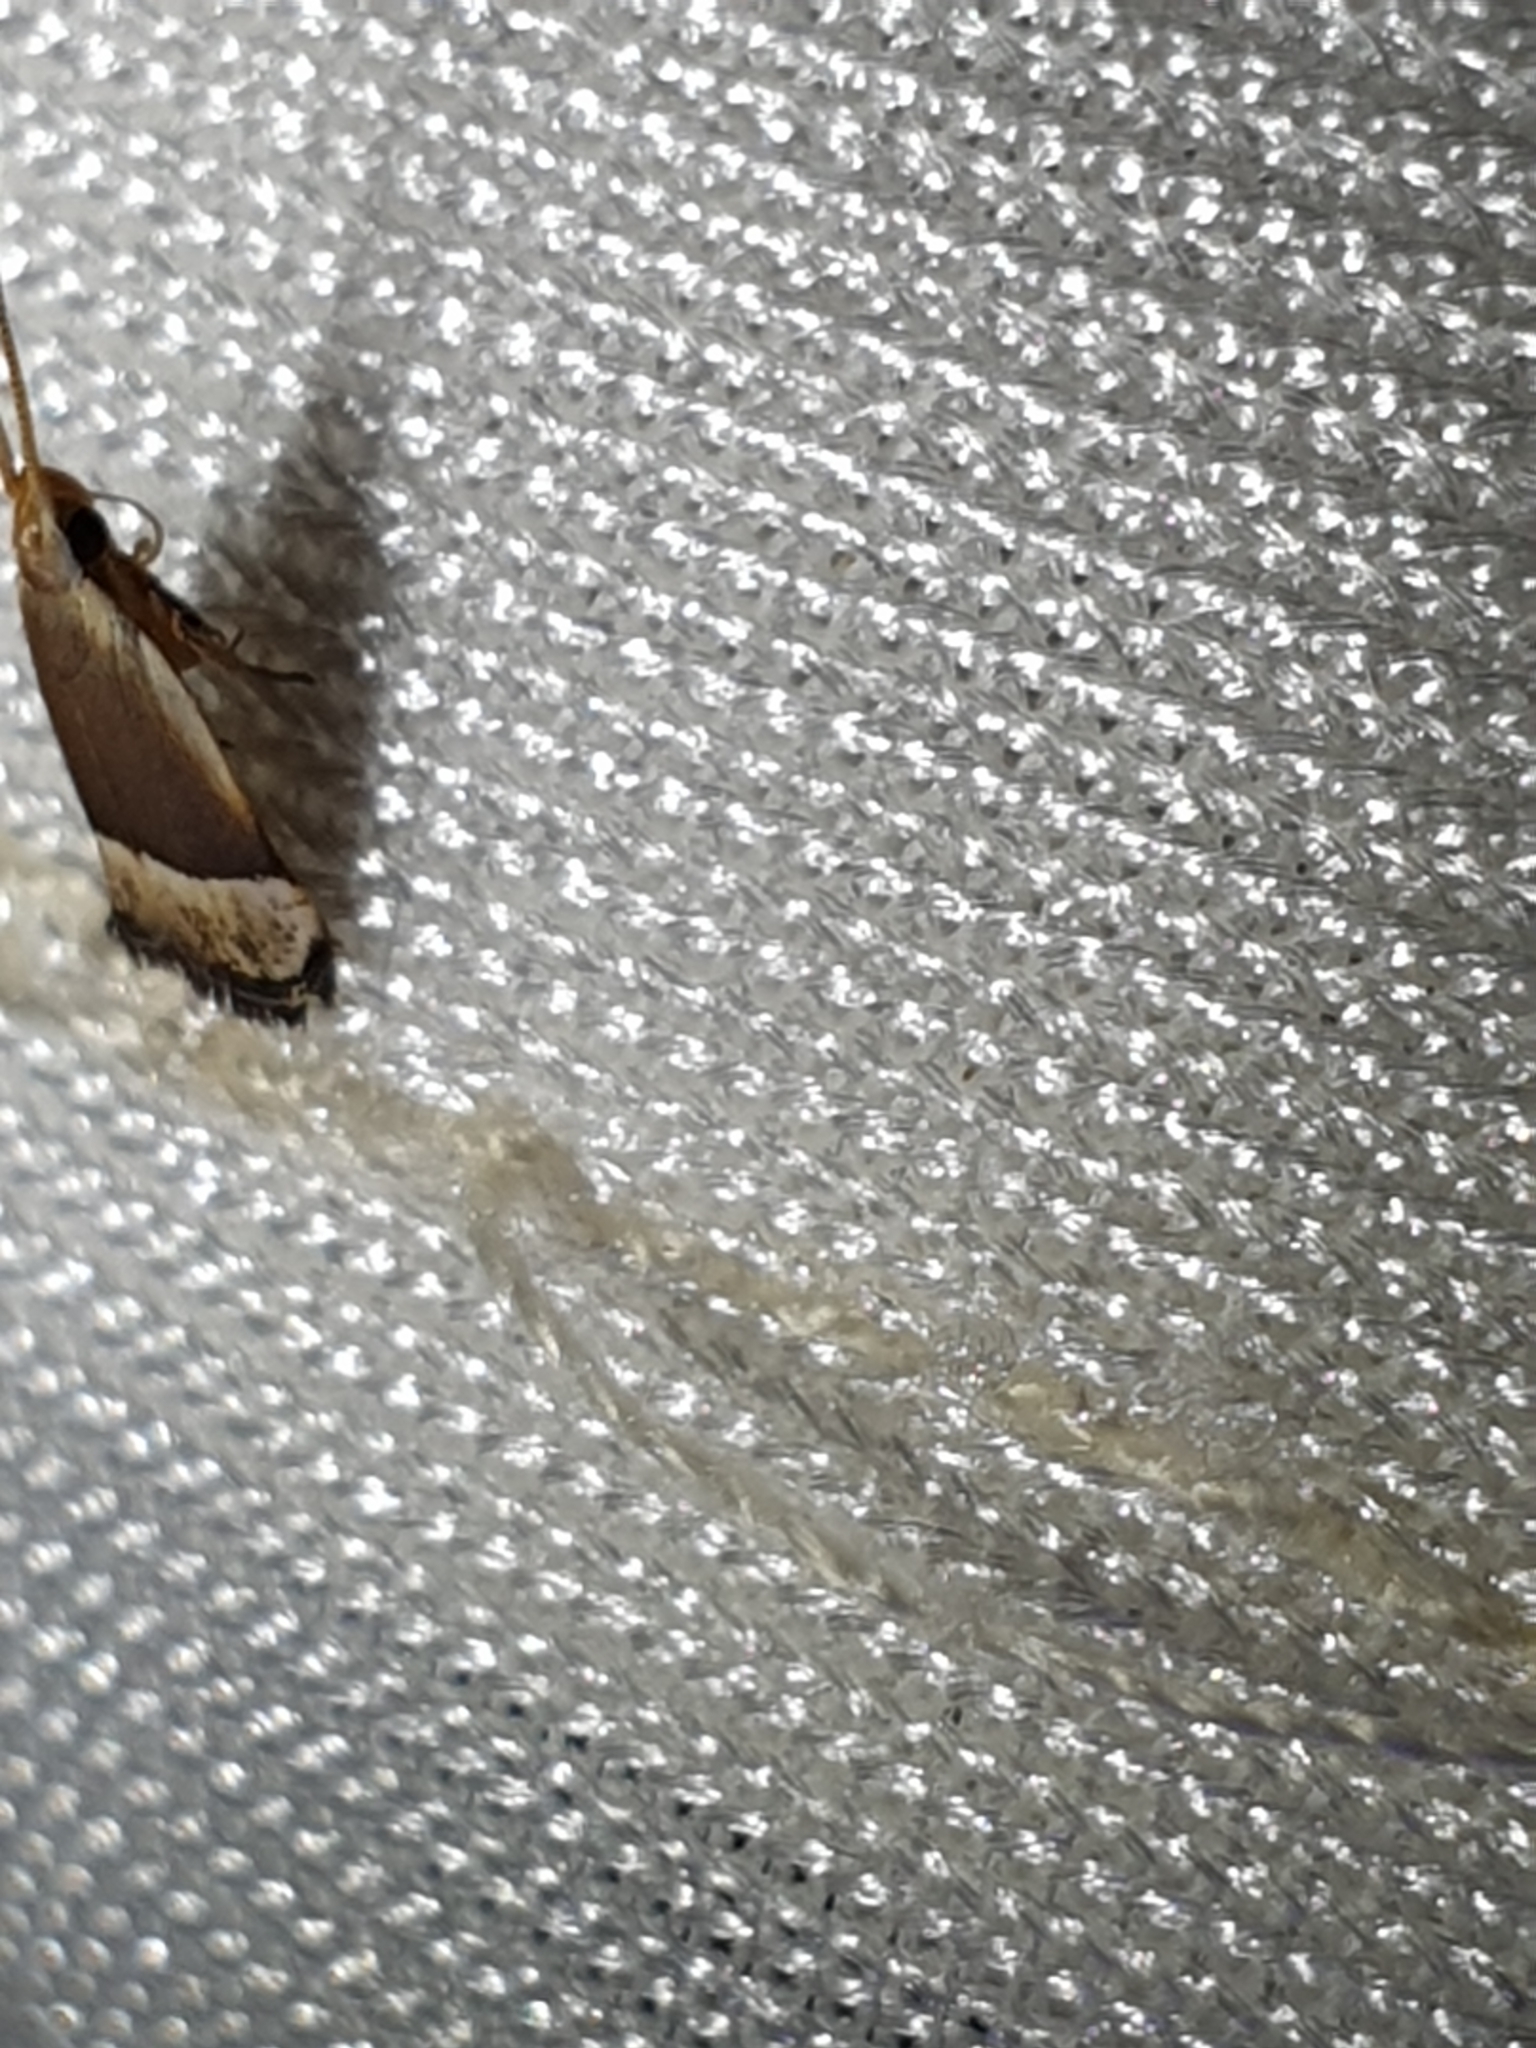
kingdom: Animalia
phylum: Arthropoda
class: Insecta
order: Lepidoptera
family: Lecithoceridae
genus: Sarisophora
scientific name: Sarisophora tenella
